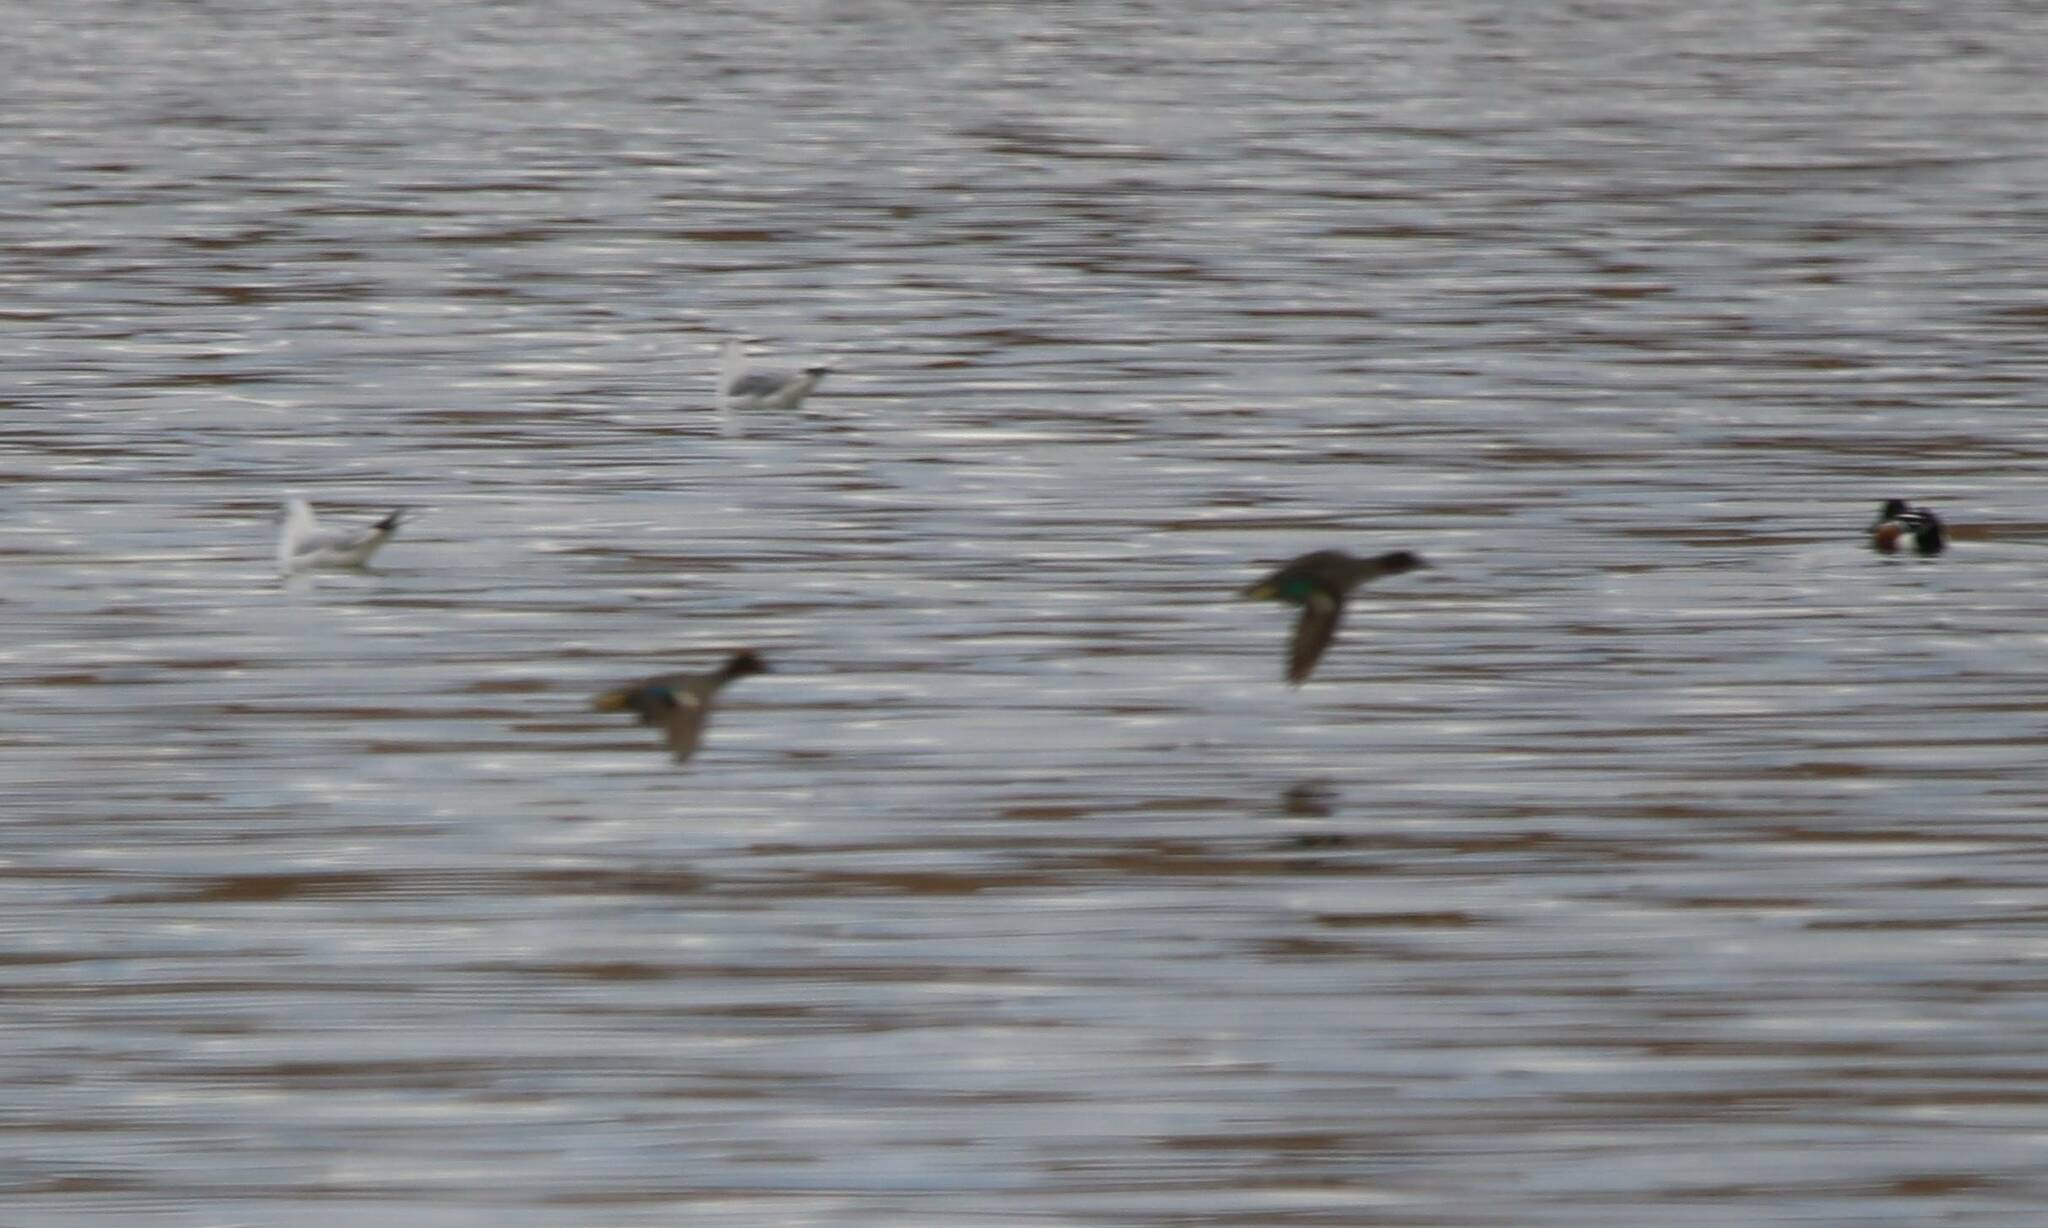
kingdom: Animalia
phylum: Chordata
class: Aves
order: Anseriformes
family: Anatidae
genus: Anas
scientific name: Anas crecca
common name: Eurasian teal
